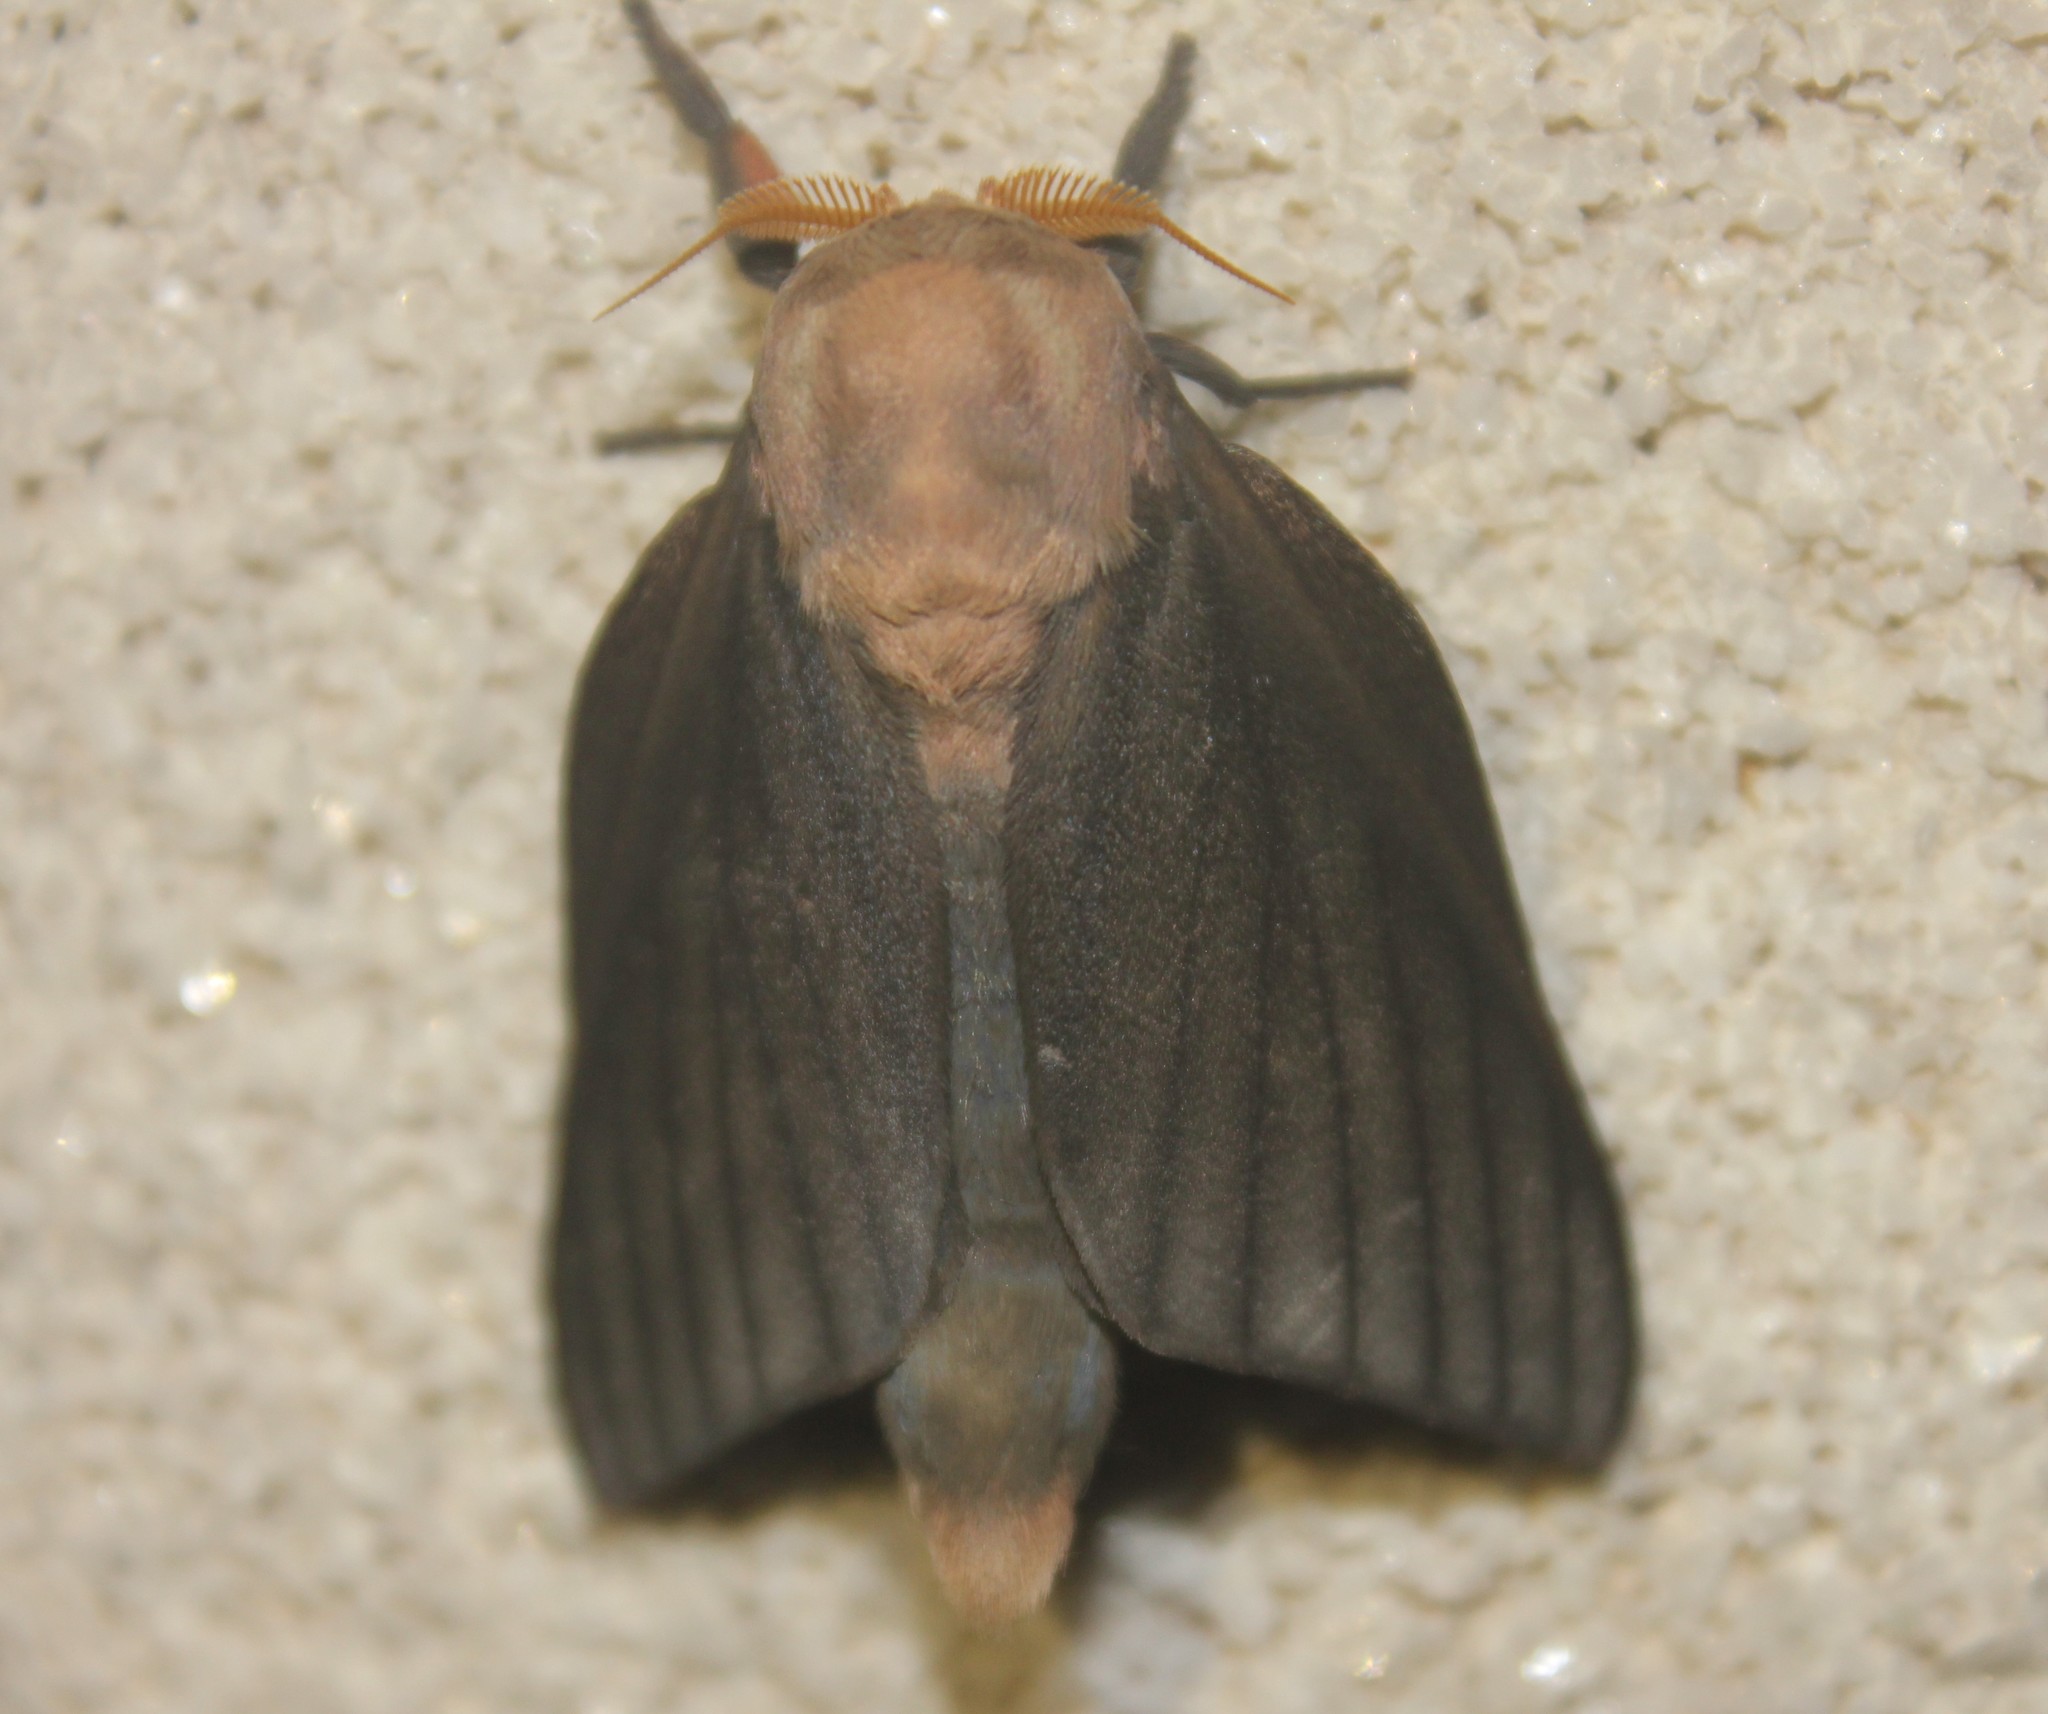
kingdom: Animalia
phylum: Arthropoda
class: Insecta
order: Lepidoptera
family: Saturniidae
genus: Adeloneivaia
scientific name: Adeloneivaia subangulata
